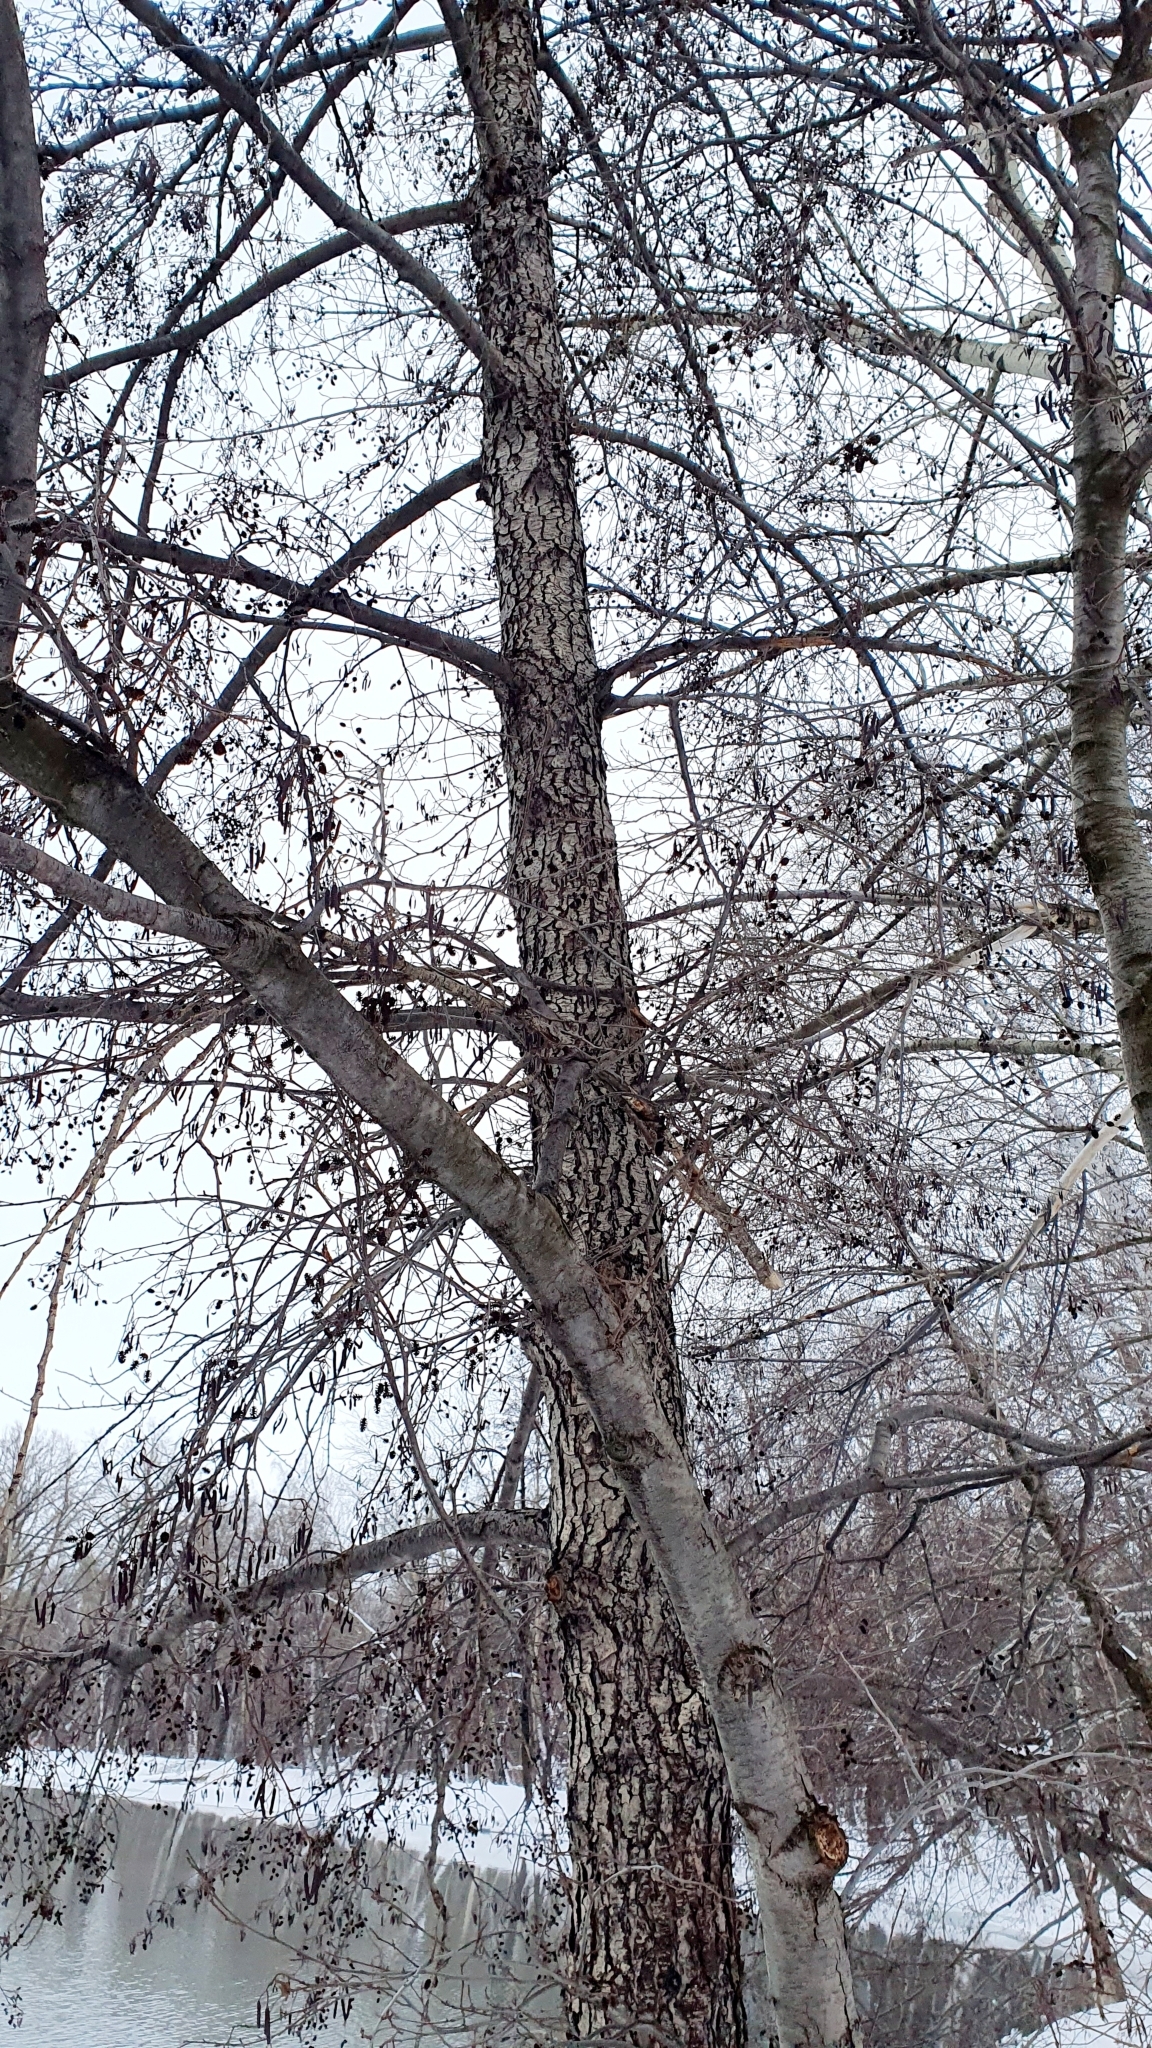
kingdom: Plantae
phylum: Tracheophyta
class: Magnoliopsida
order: Fagales
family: Betulaceae
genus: Alnus
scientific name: Alnus glutinosa
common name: Black alder
